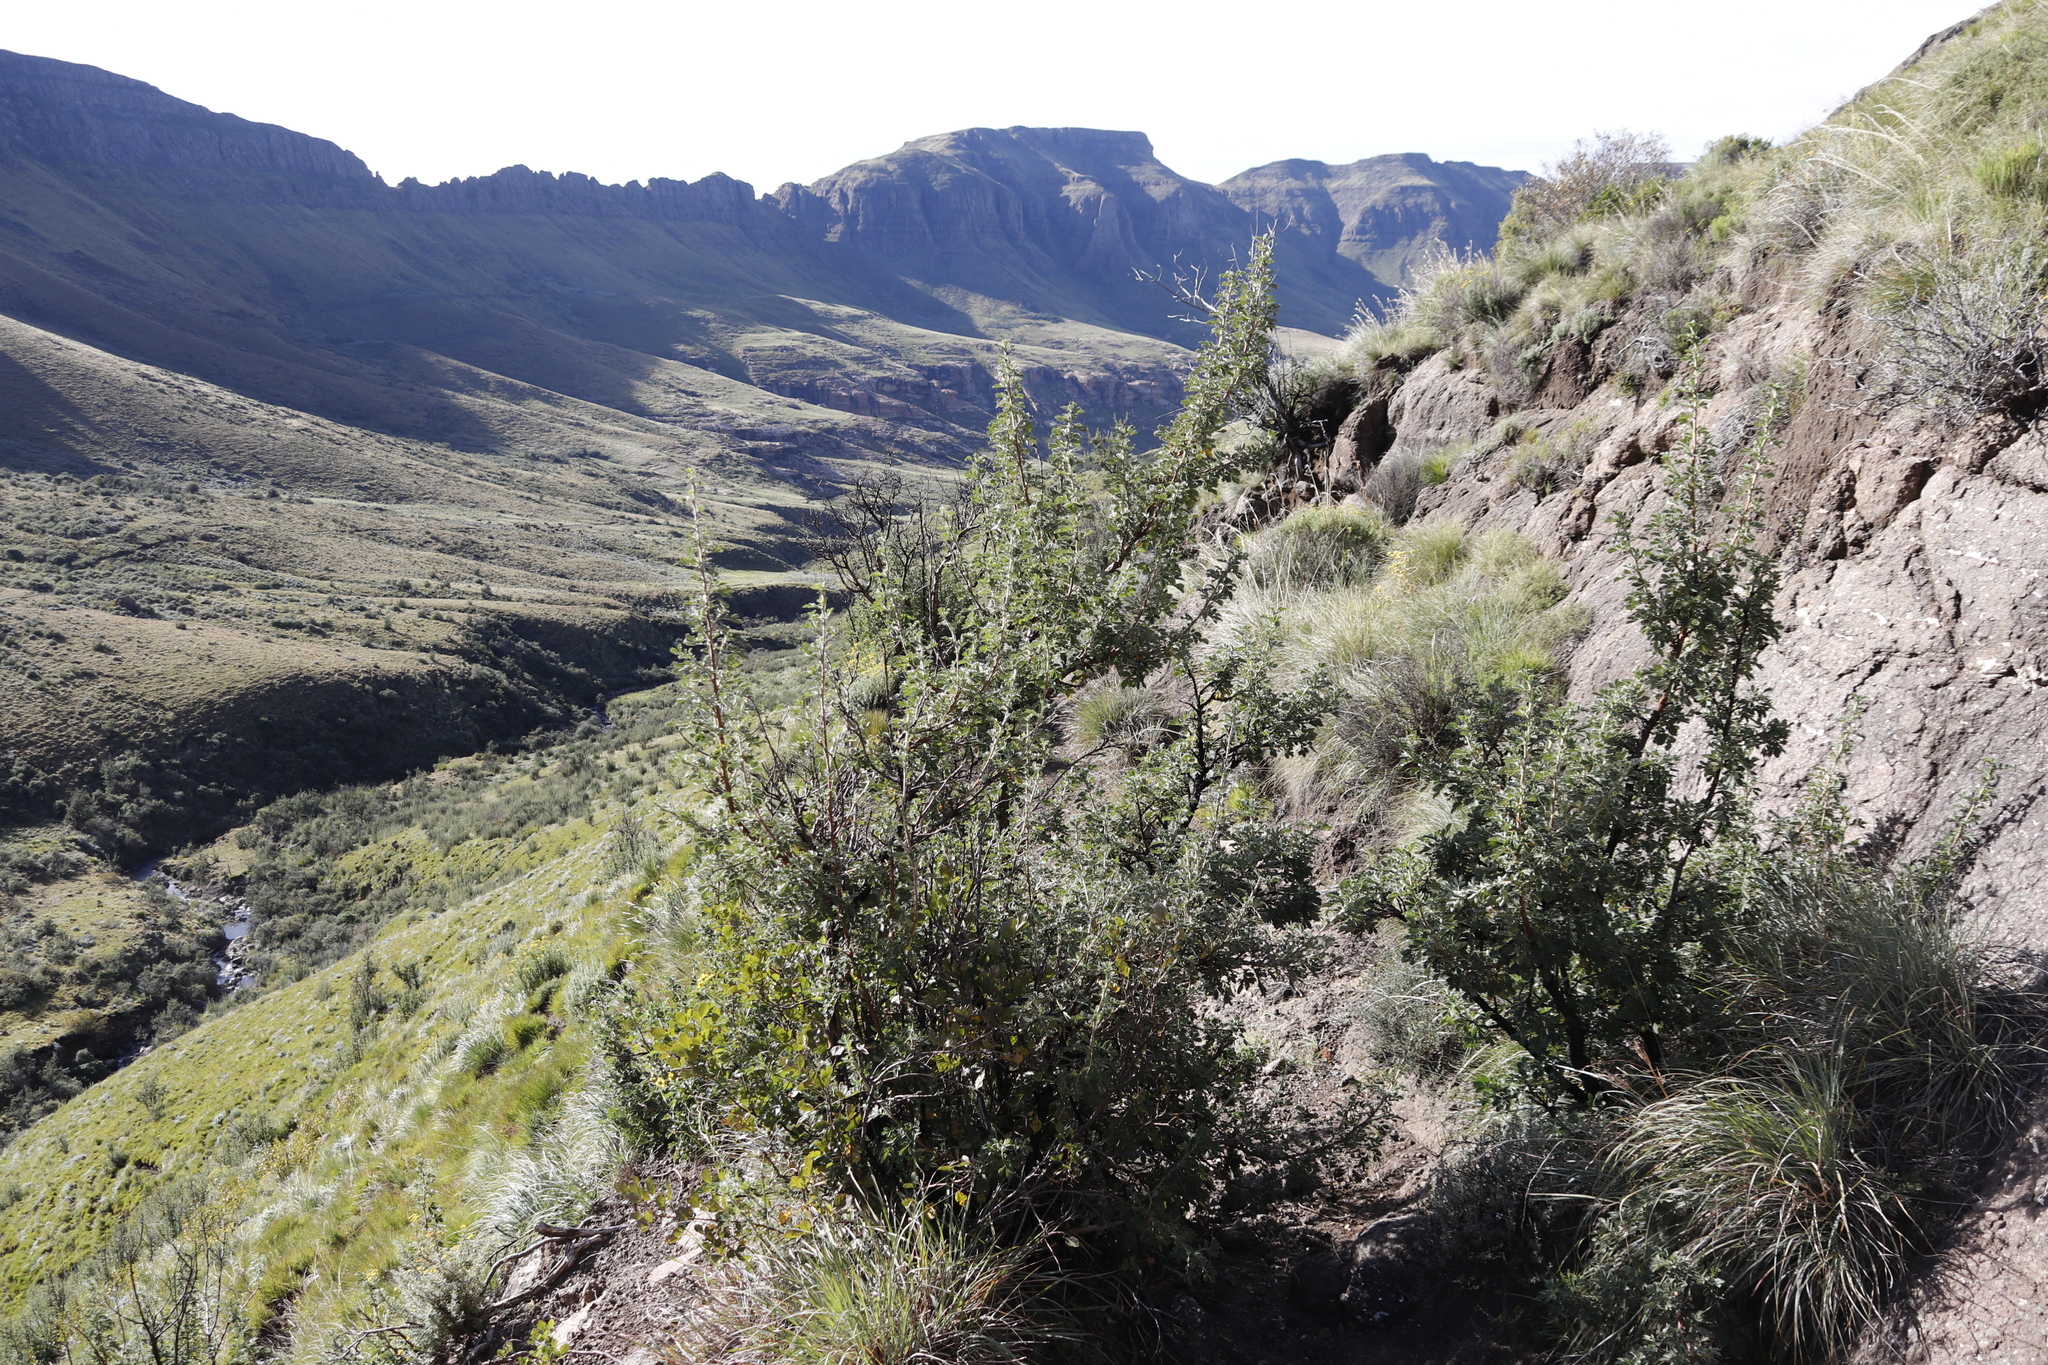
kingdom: Plantae
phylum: Tracheophyta
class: Magnoliopsida
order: Rosales
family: Rosaceae
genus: Leucosidea
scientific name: Leucosidea sericea
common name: Oldwood
